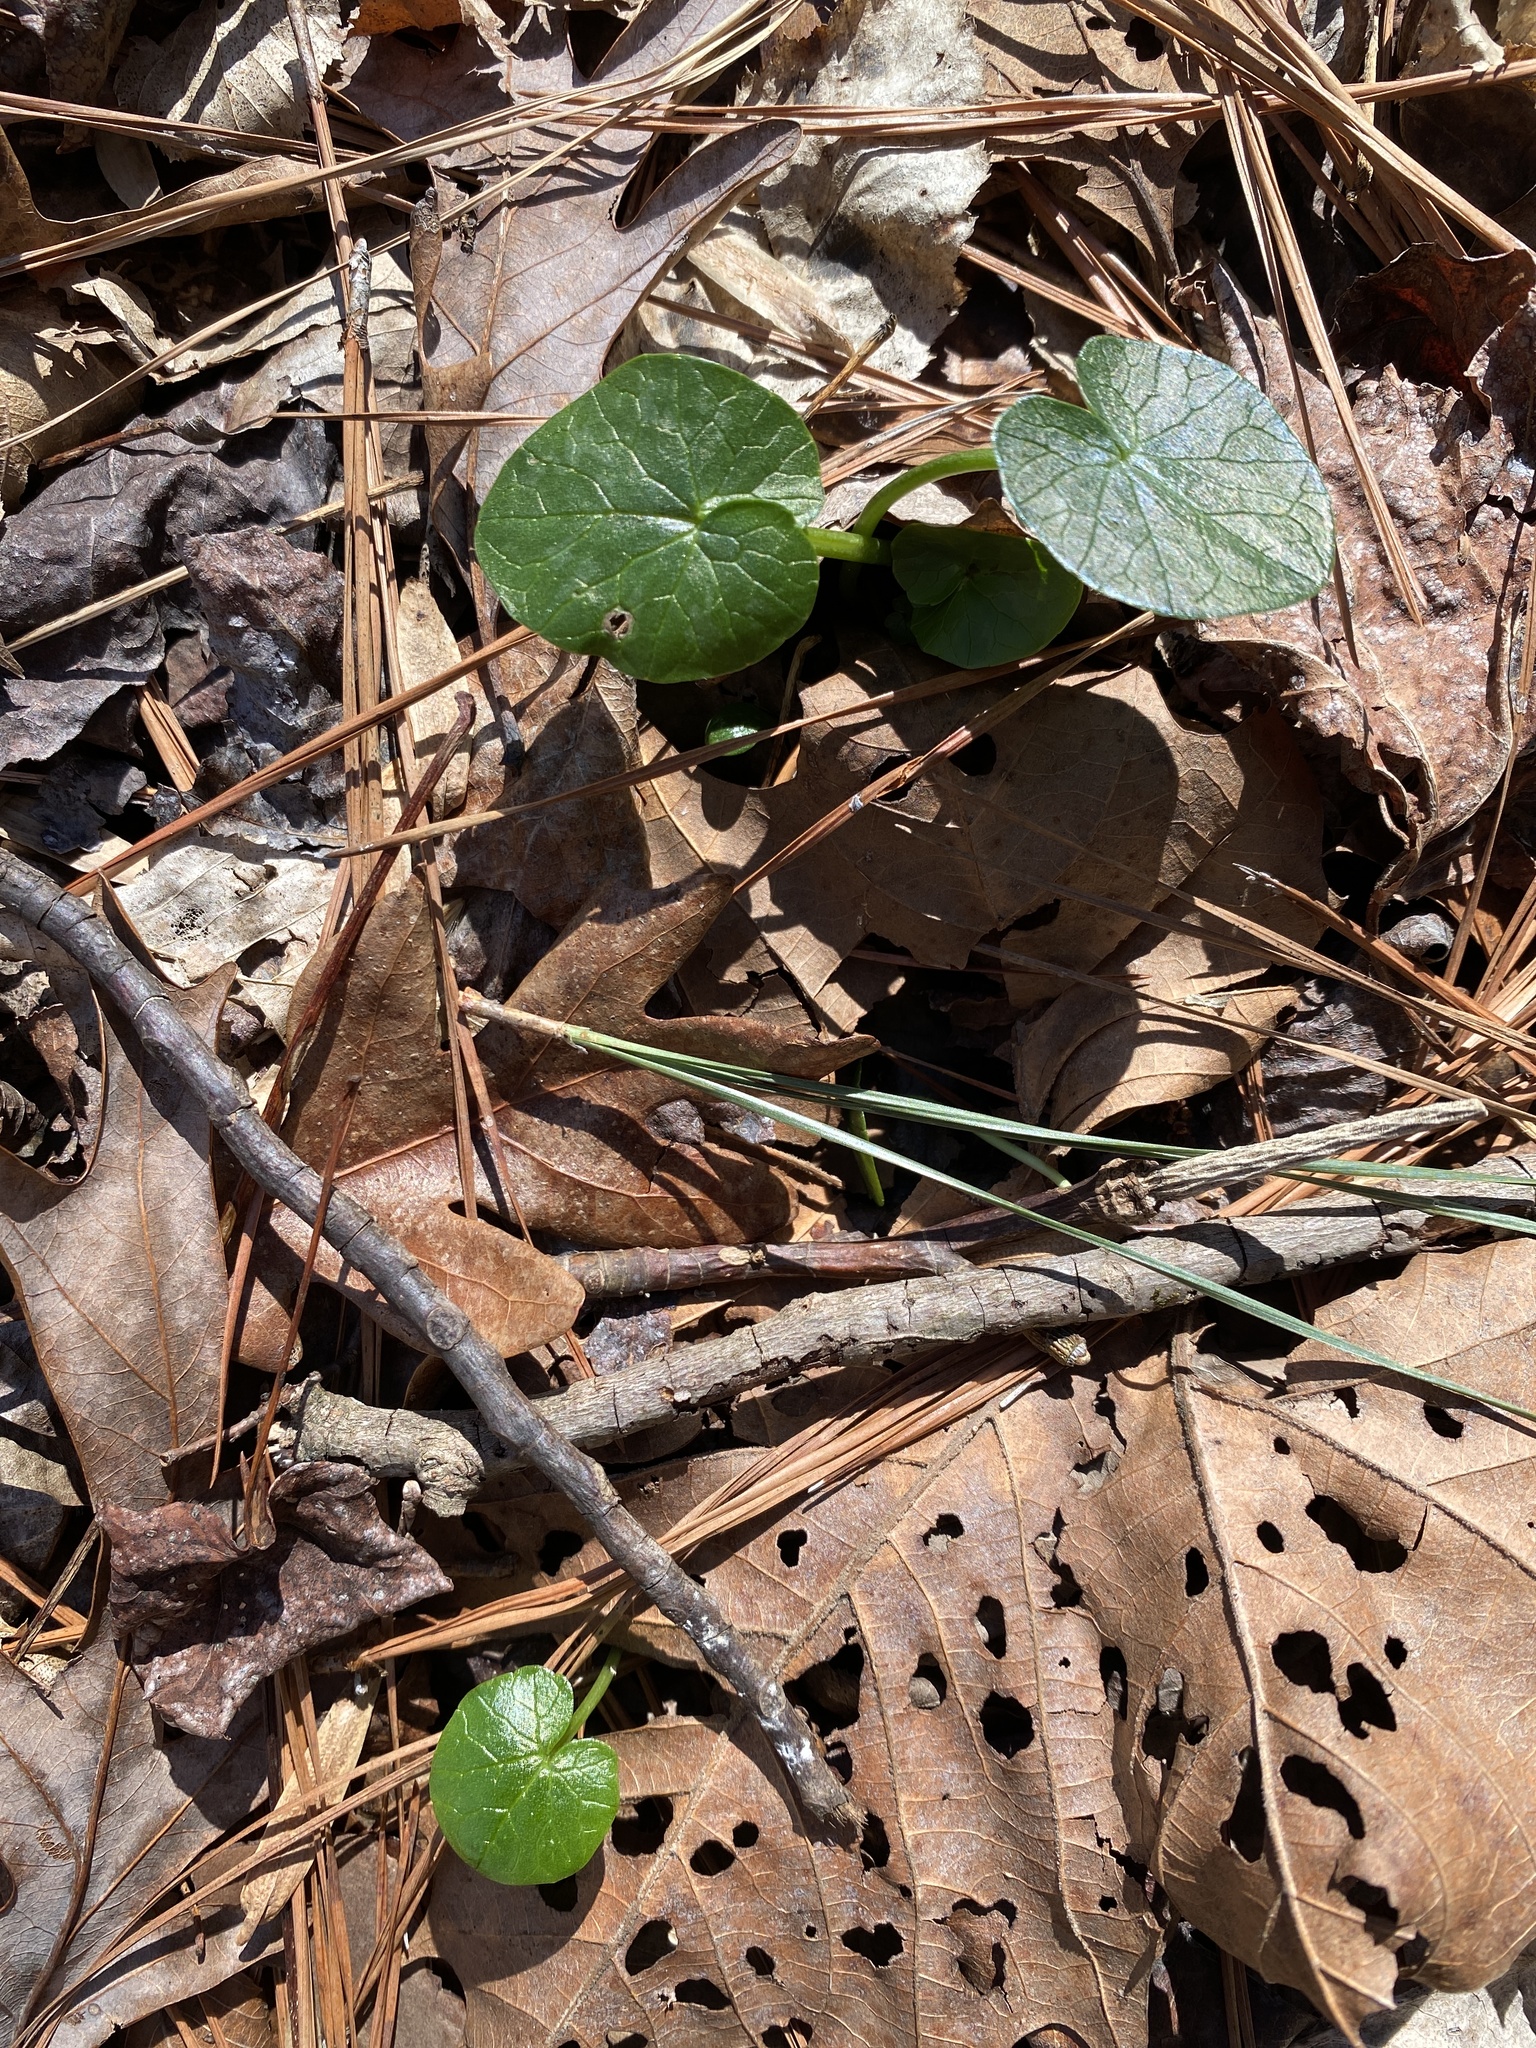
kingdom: Plantae
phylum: Tracheophyta
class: Magnoliopsida
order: Ranunculales
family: Ranunculaceae
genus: Ficaria
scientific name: Ficaria verna
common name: Lesser celandine
